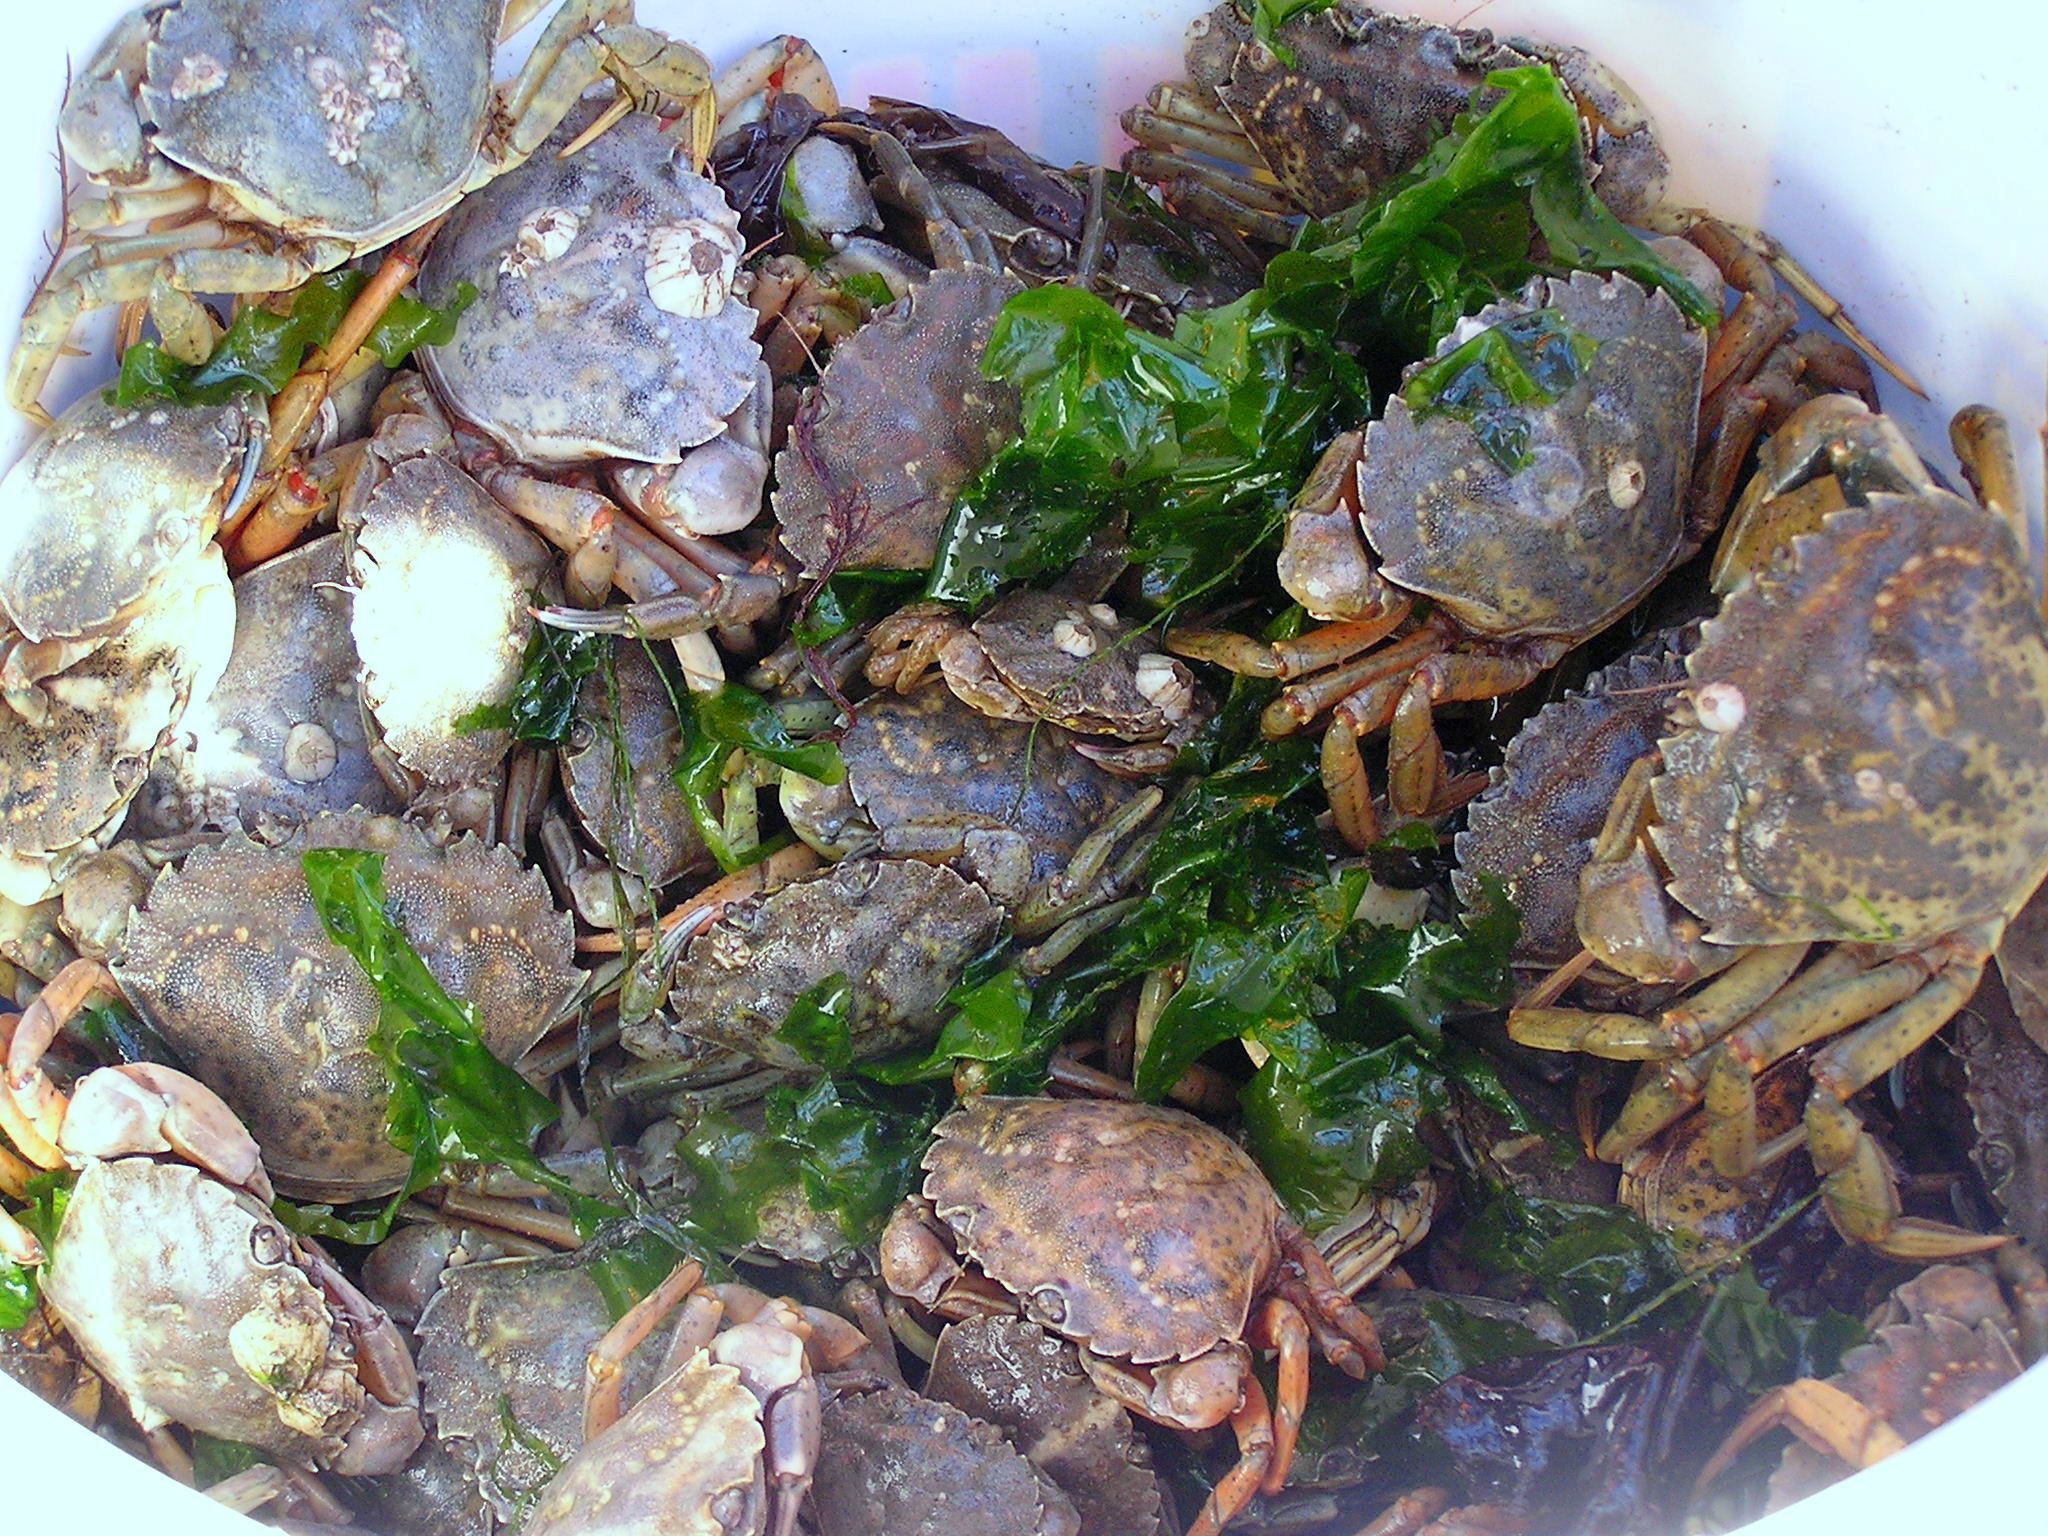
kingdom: Animalia
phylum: Arthropoda
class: Malacostraca
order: Decapoda
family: Carcinidae
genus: Carcinus
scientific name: Carcinus maenas
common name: European green crab
